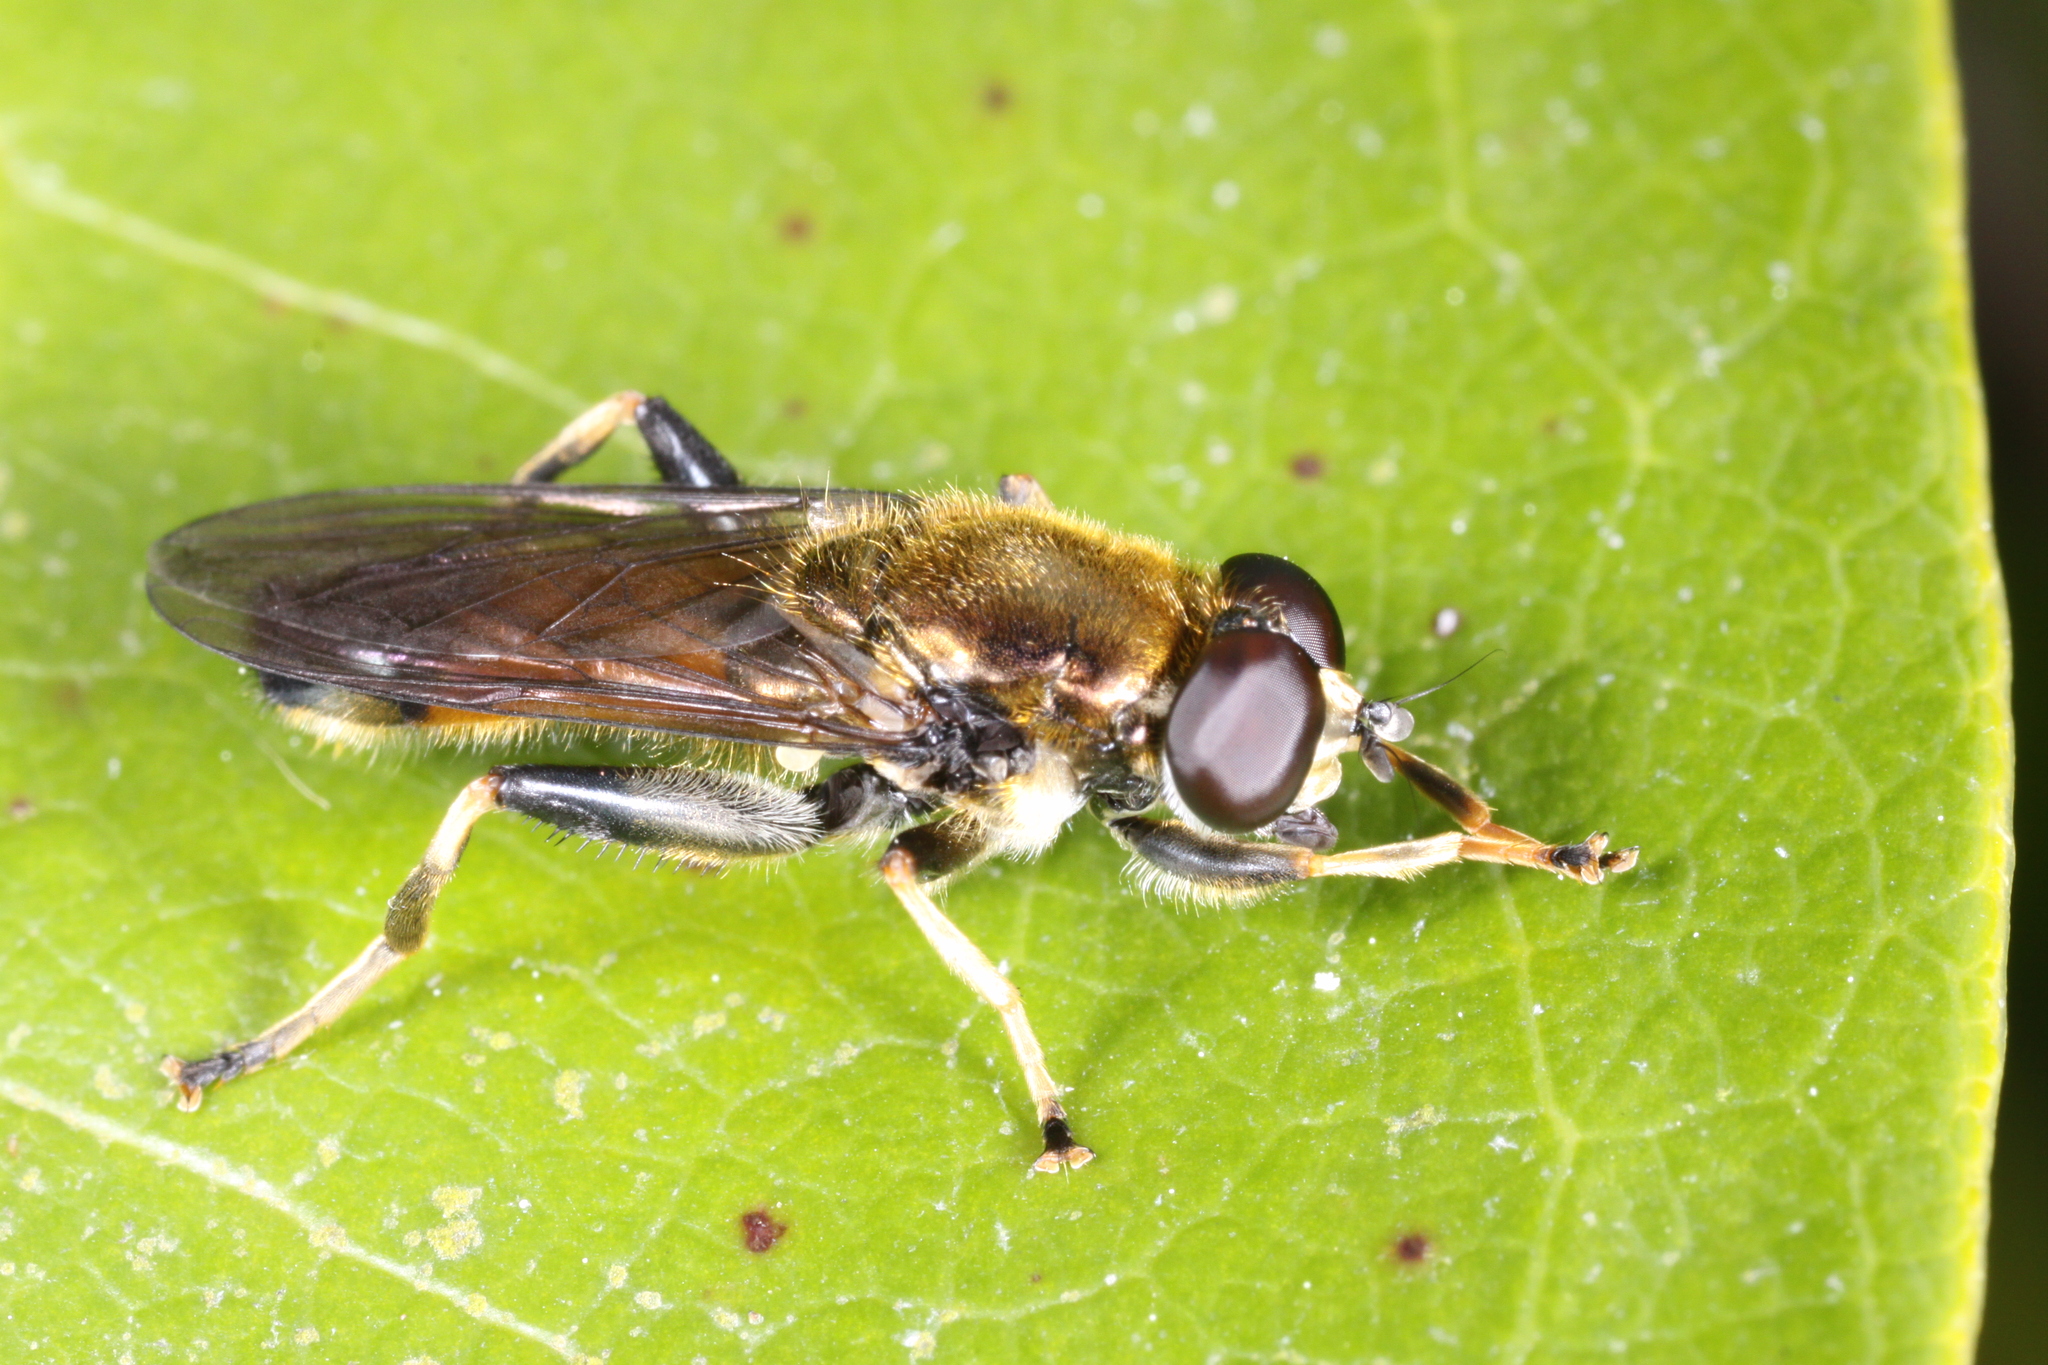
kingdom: Animalia
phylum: Arthropoda
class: Insecta
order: Diptera
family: Syrphidae
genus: Xylota
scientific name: Xylota segnis
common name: Brown-toed forest fly
